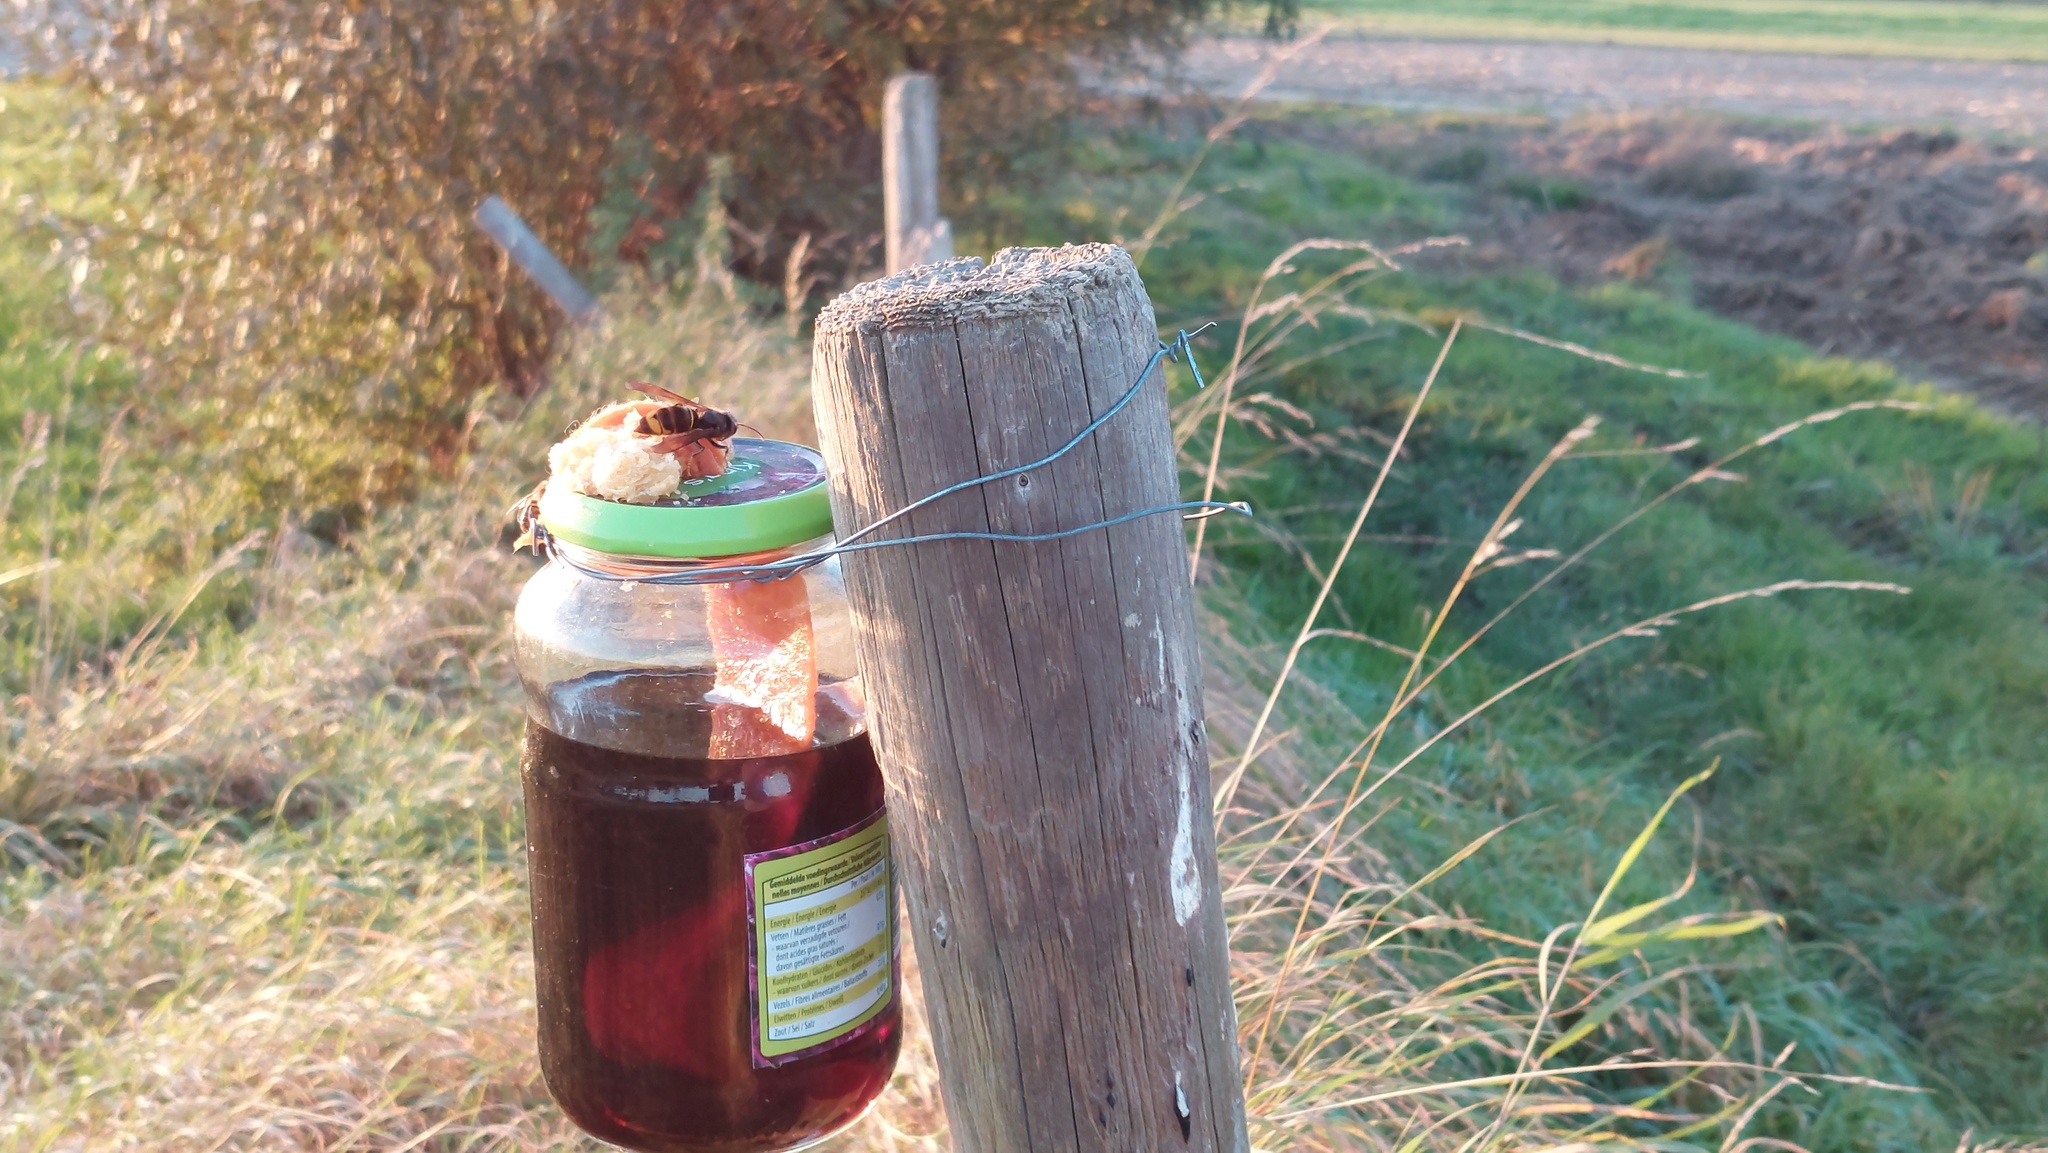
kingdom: Animalia
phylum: Arthropoda
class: Insecta
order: Hymenoptera
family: Vespidae
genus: Vespa
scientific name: Vespa velutina
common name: Asian hornet
